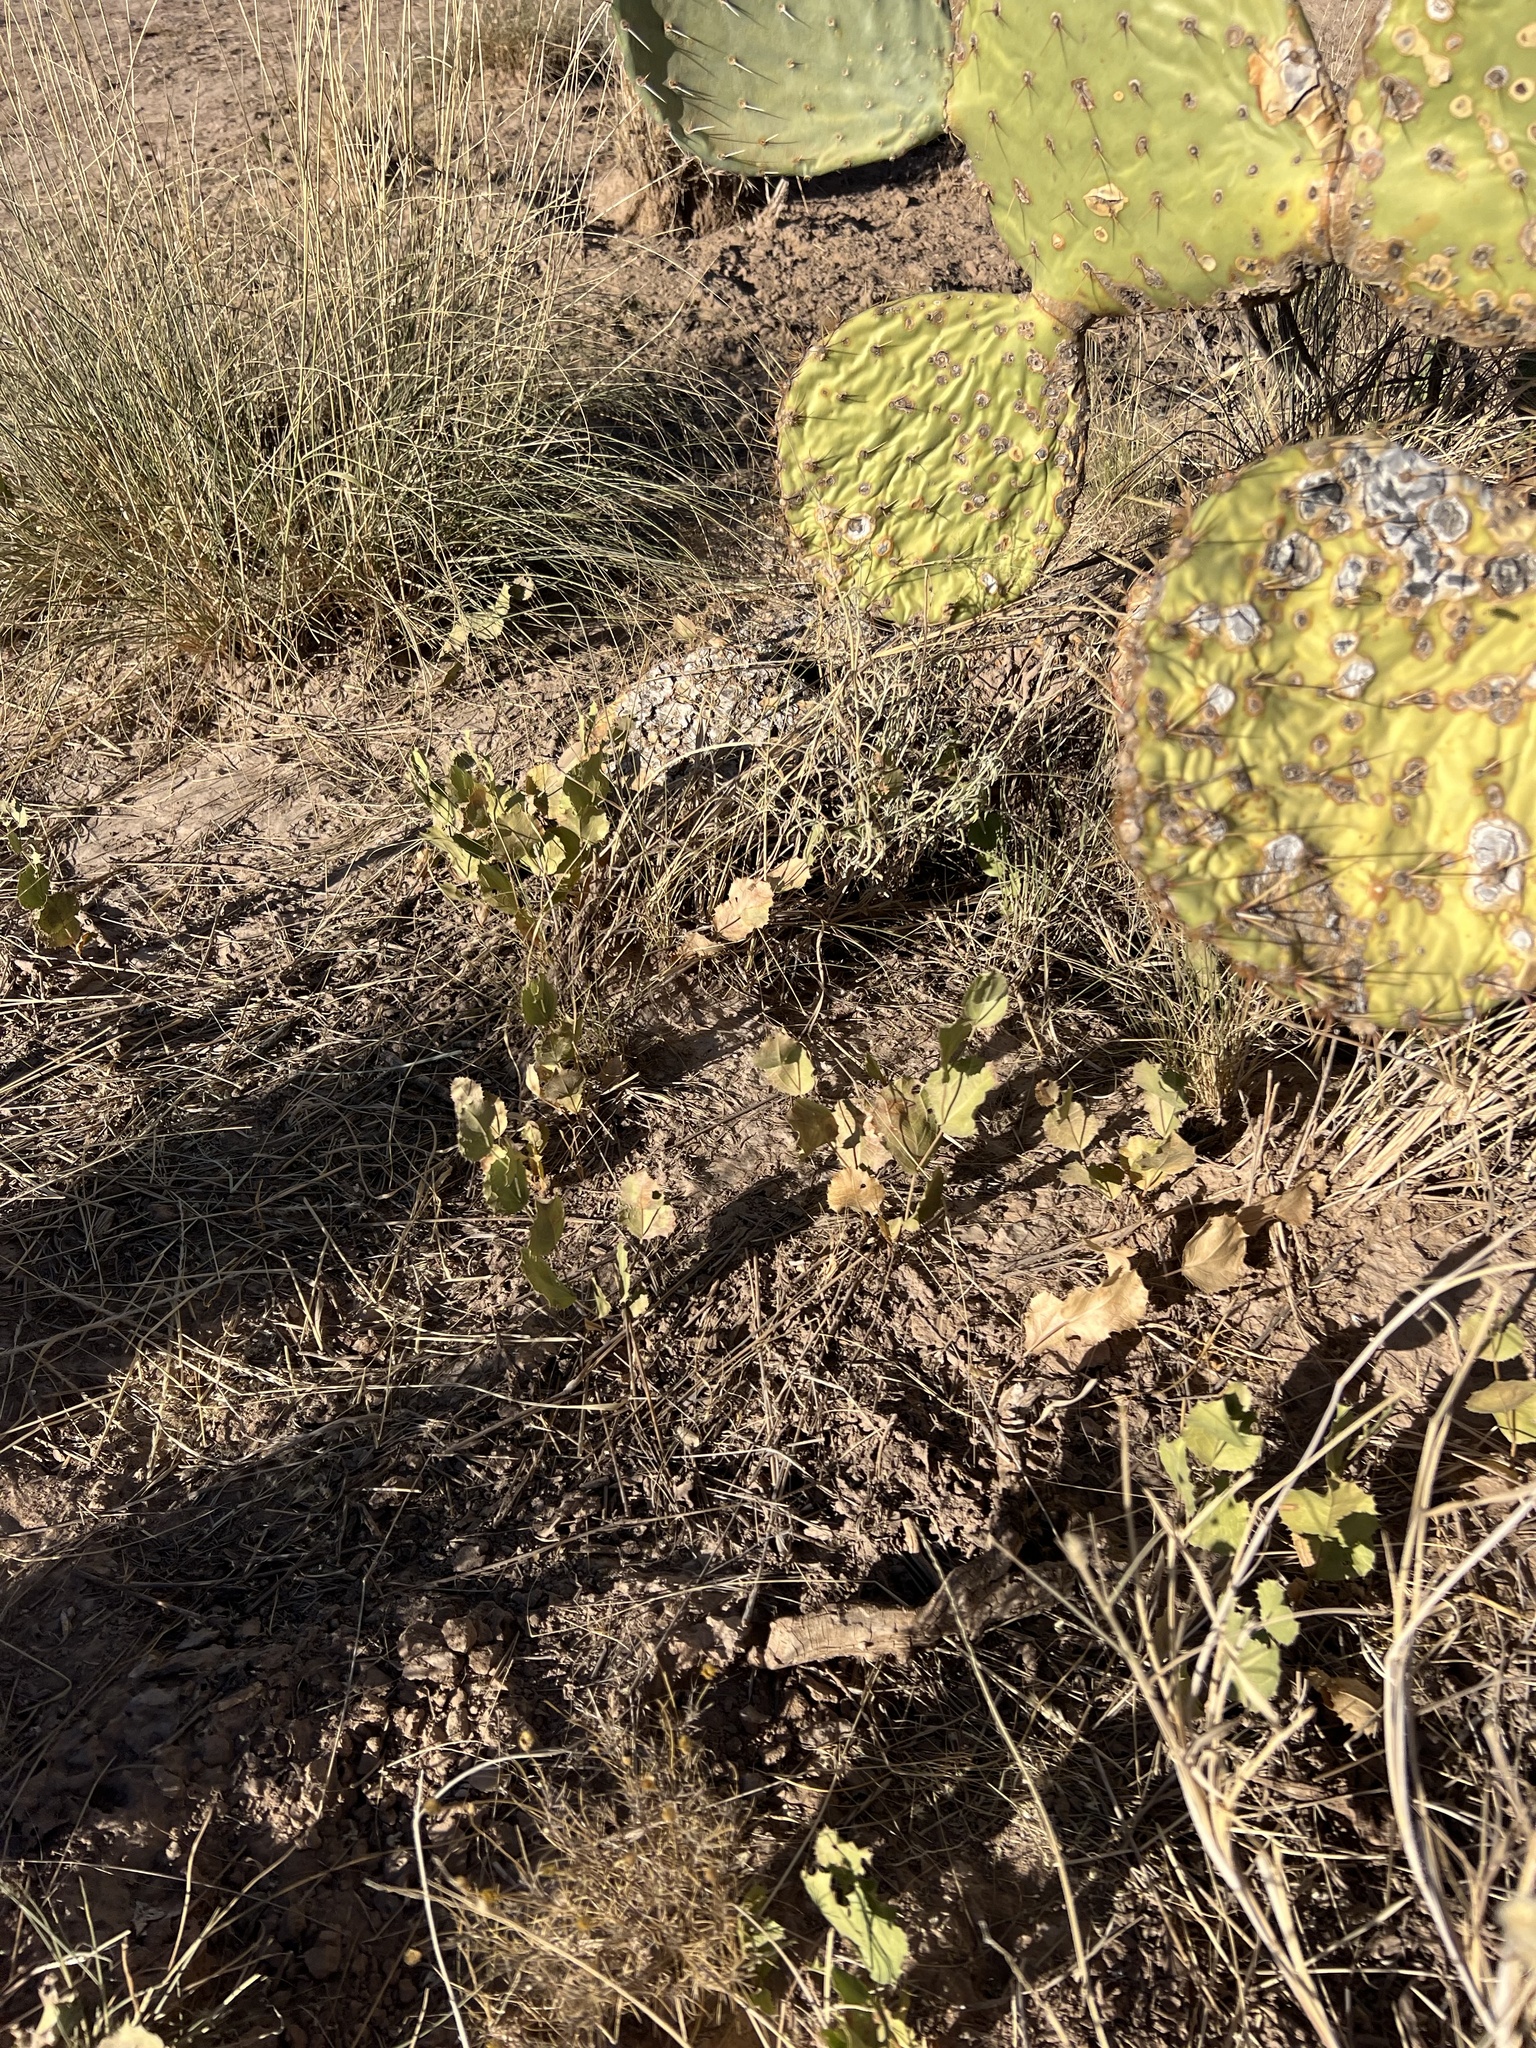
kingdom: Plantae
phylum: Tracheophyta
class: Magnoliopsida
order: Asterales
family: Asteraceae
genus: Acourtia
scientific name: Acourtia nana
